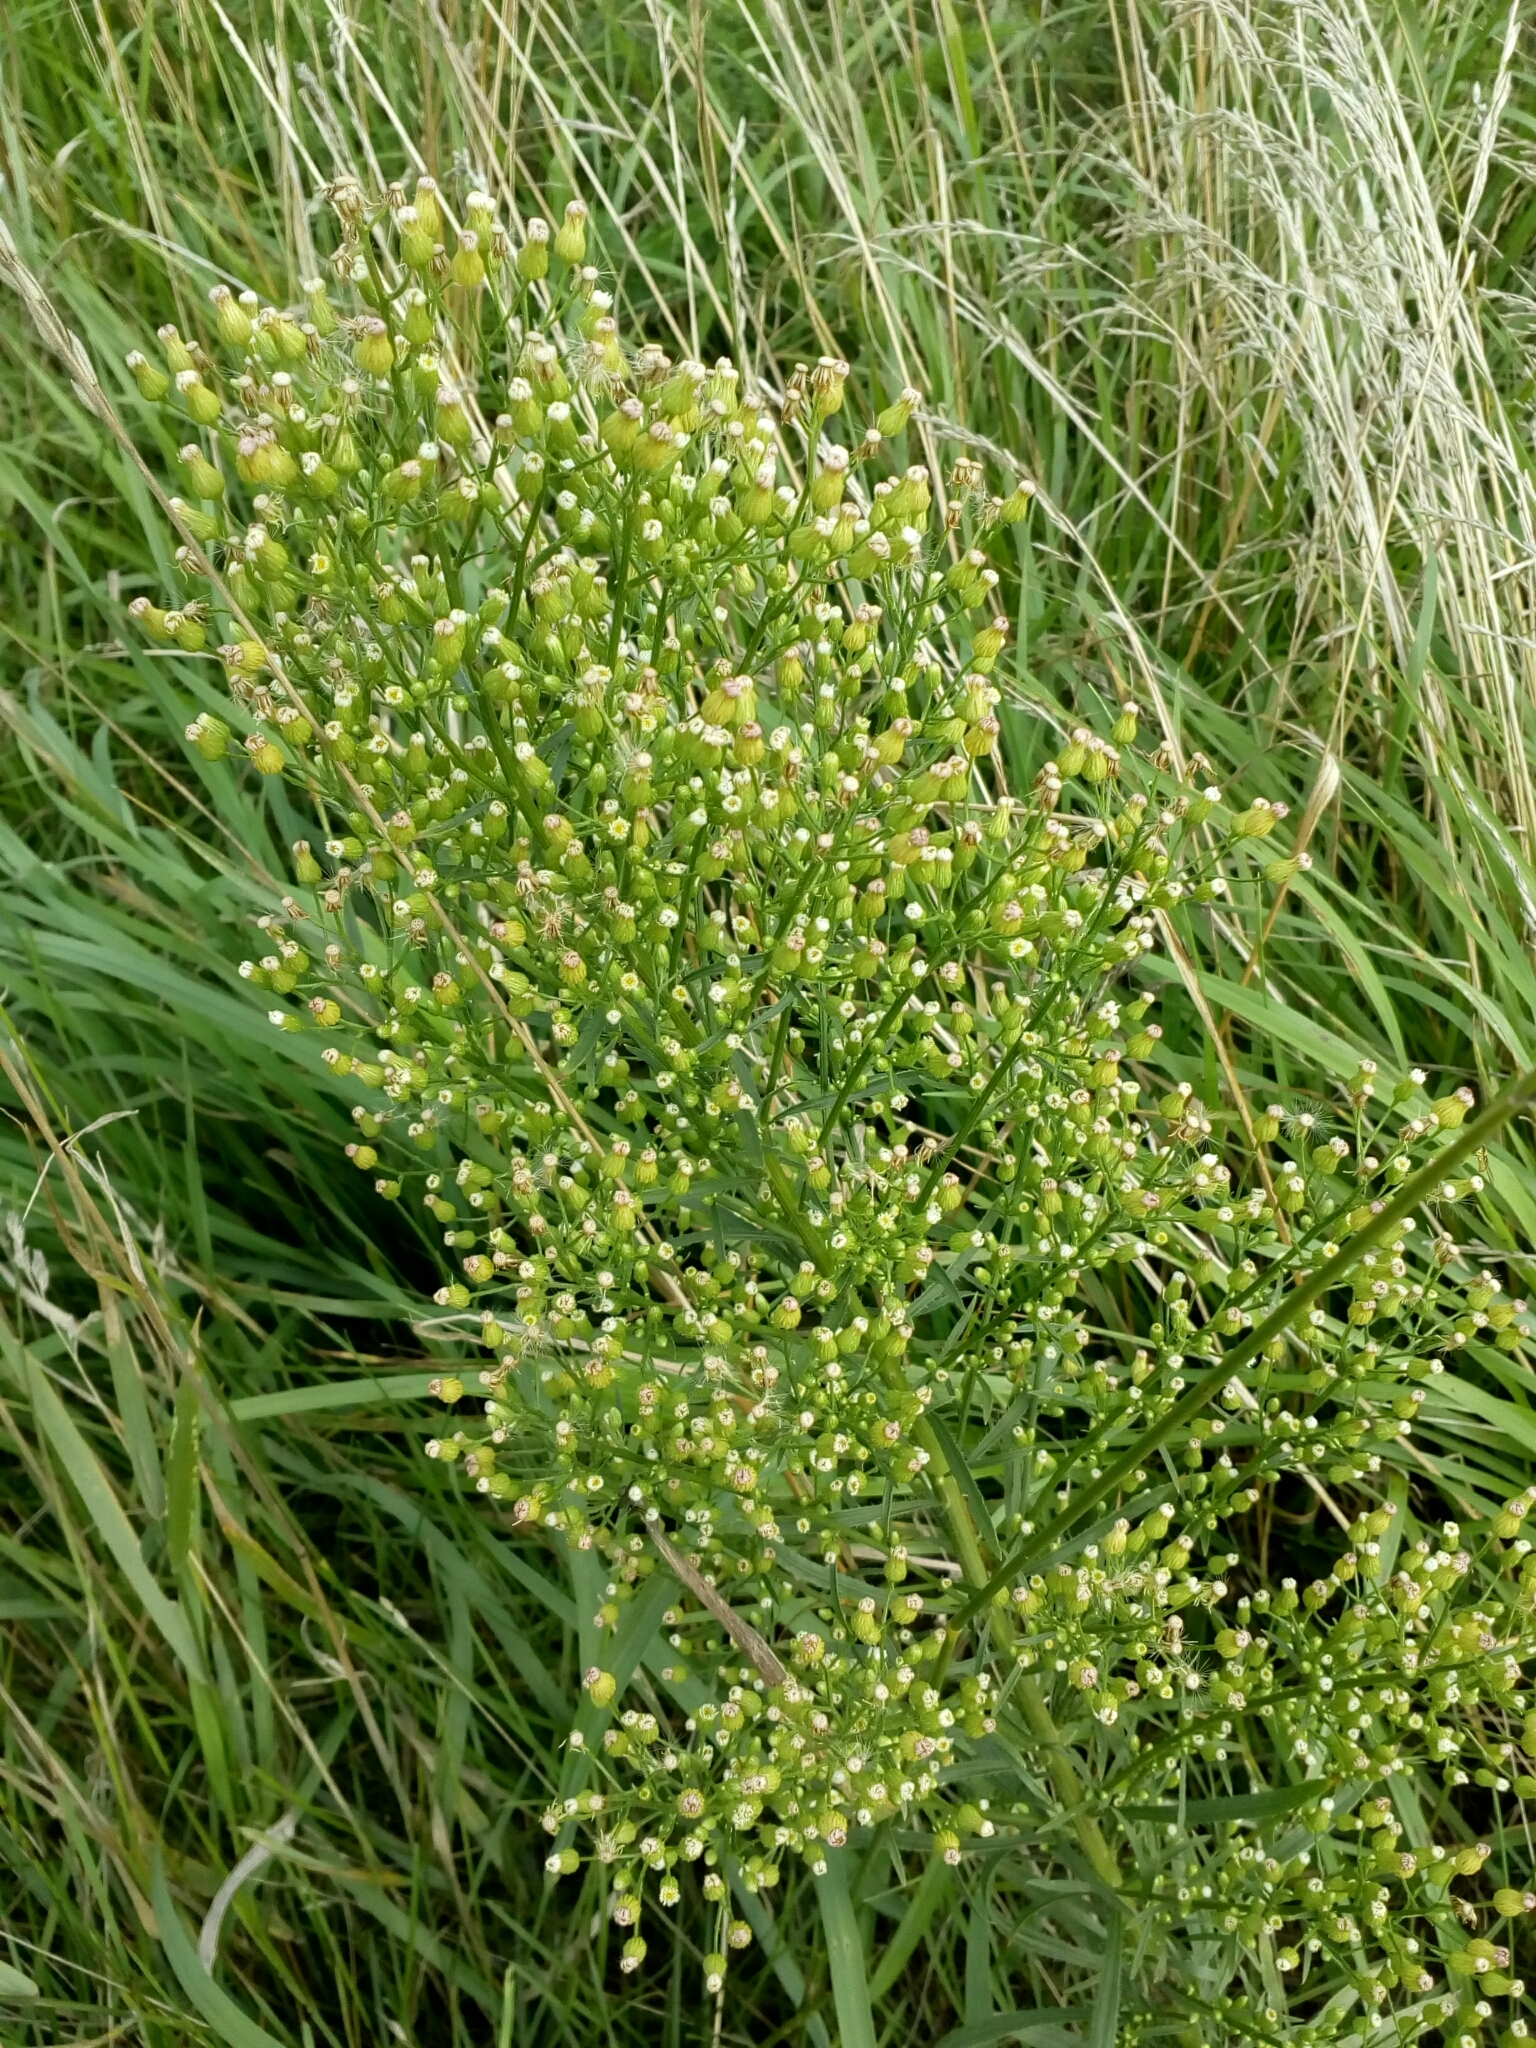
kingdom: Plantae
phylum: Tracheophyta
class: Magnoliopsida
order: Asterales
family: Asteraceae
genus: Erigeron
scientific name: Erigeron canadensis
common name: Canadian fleabane
